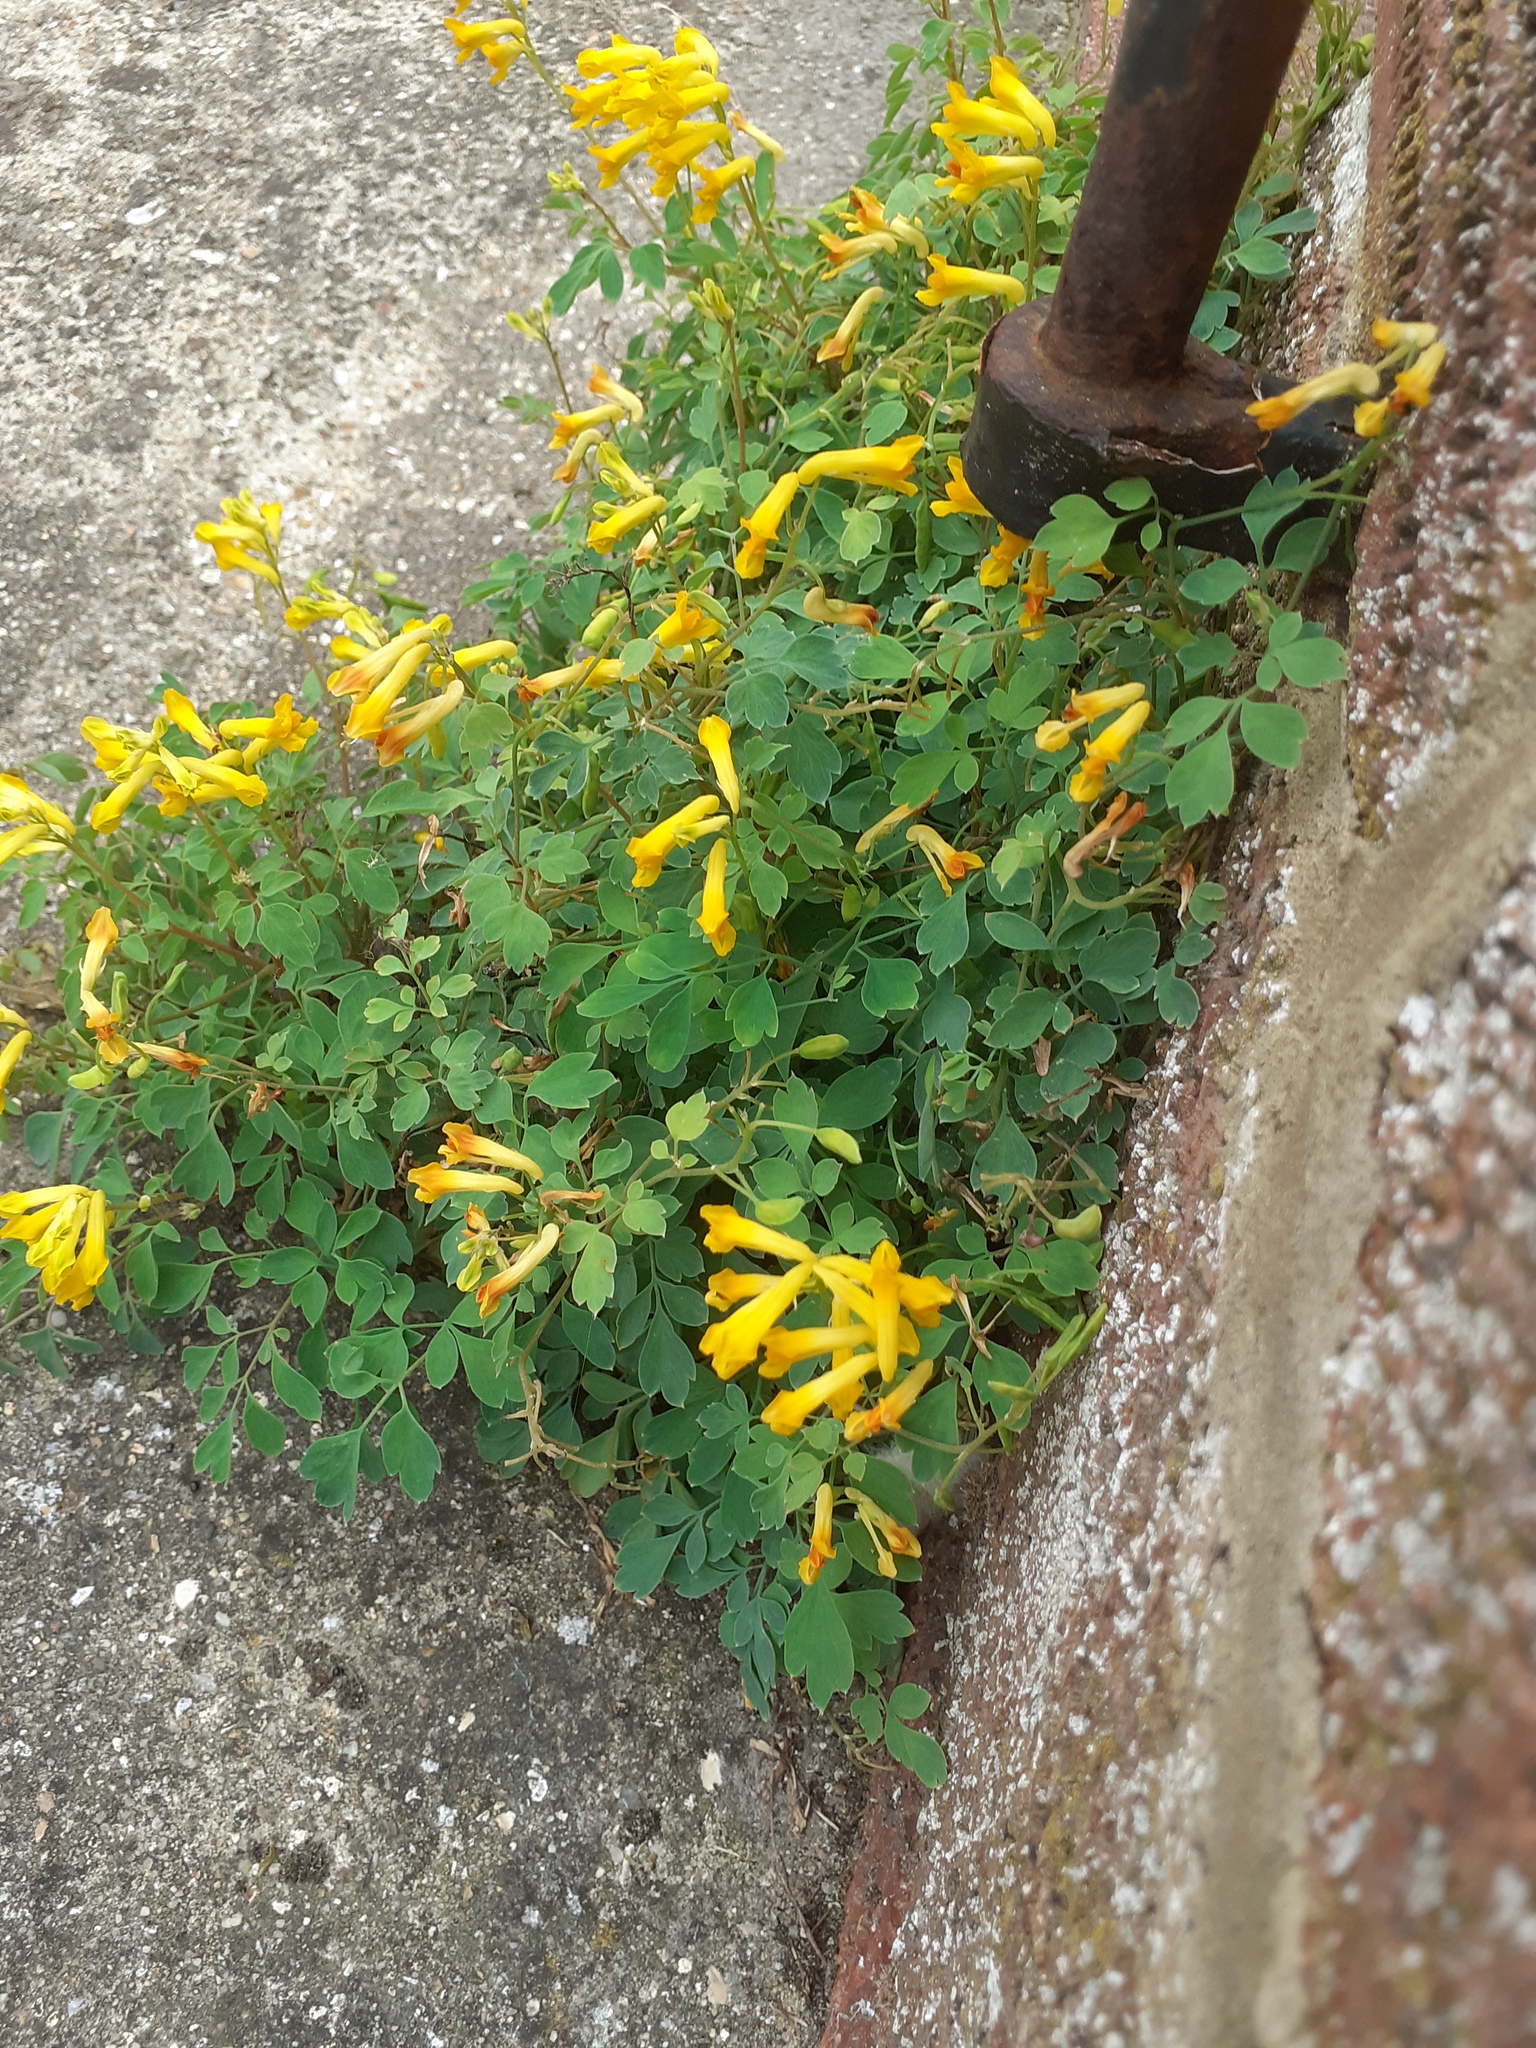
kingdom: Plantae
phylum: Tracheophyta
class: Magnoliopsida
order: Ranunculales
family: Papaveraceae
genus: Pseudofumaria
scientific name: Pseudofumaria lutea
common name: Yellow corydalis
